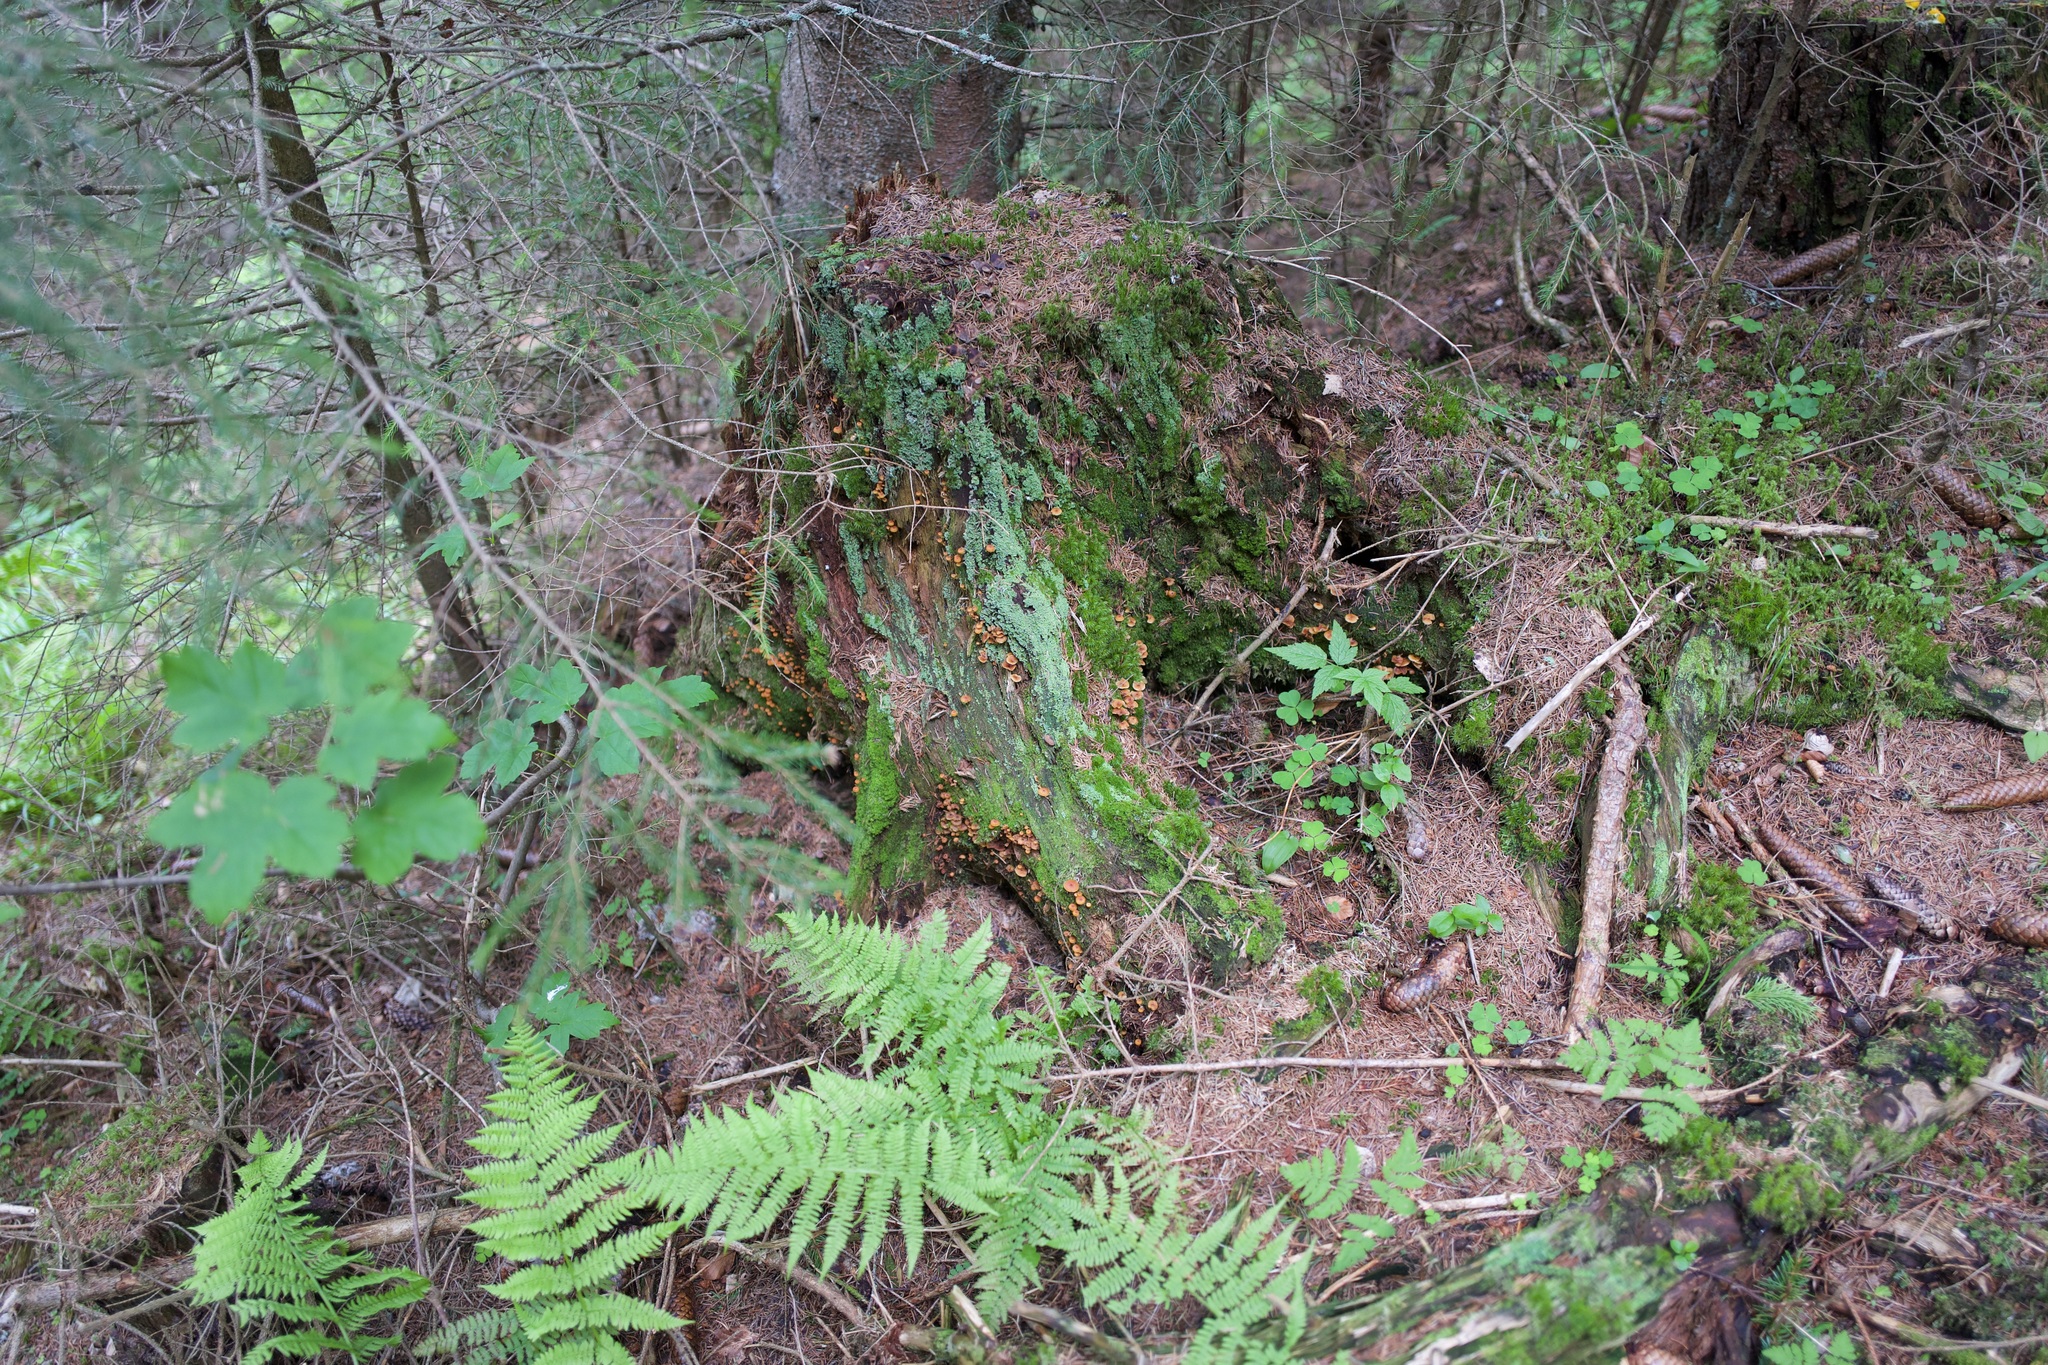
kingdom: Fungi
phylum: Basidiomycota
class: Agaricomycetes
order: Agaricales
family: Mycenaceae
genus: Xeromphalina
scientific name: Xeromphalina campanella
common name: Pinewood gingertail
